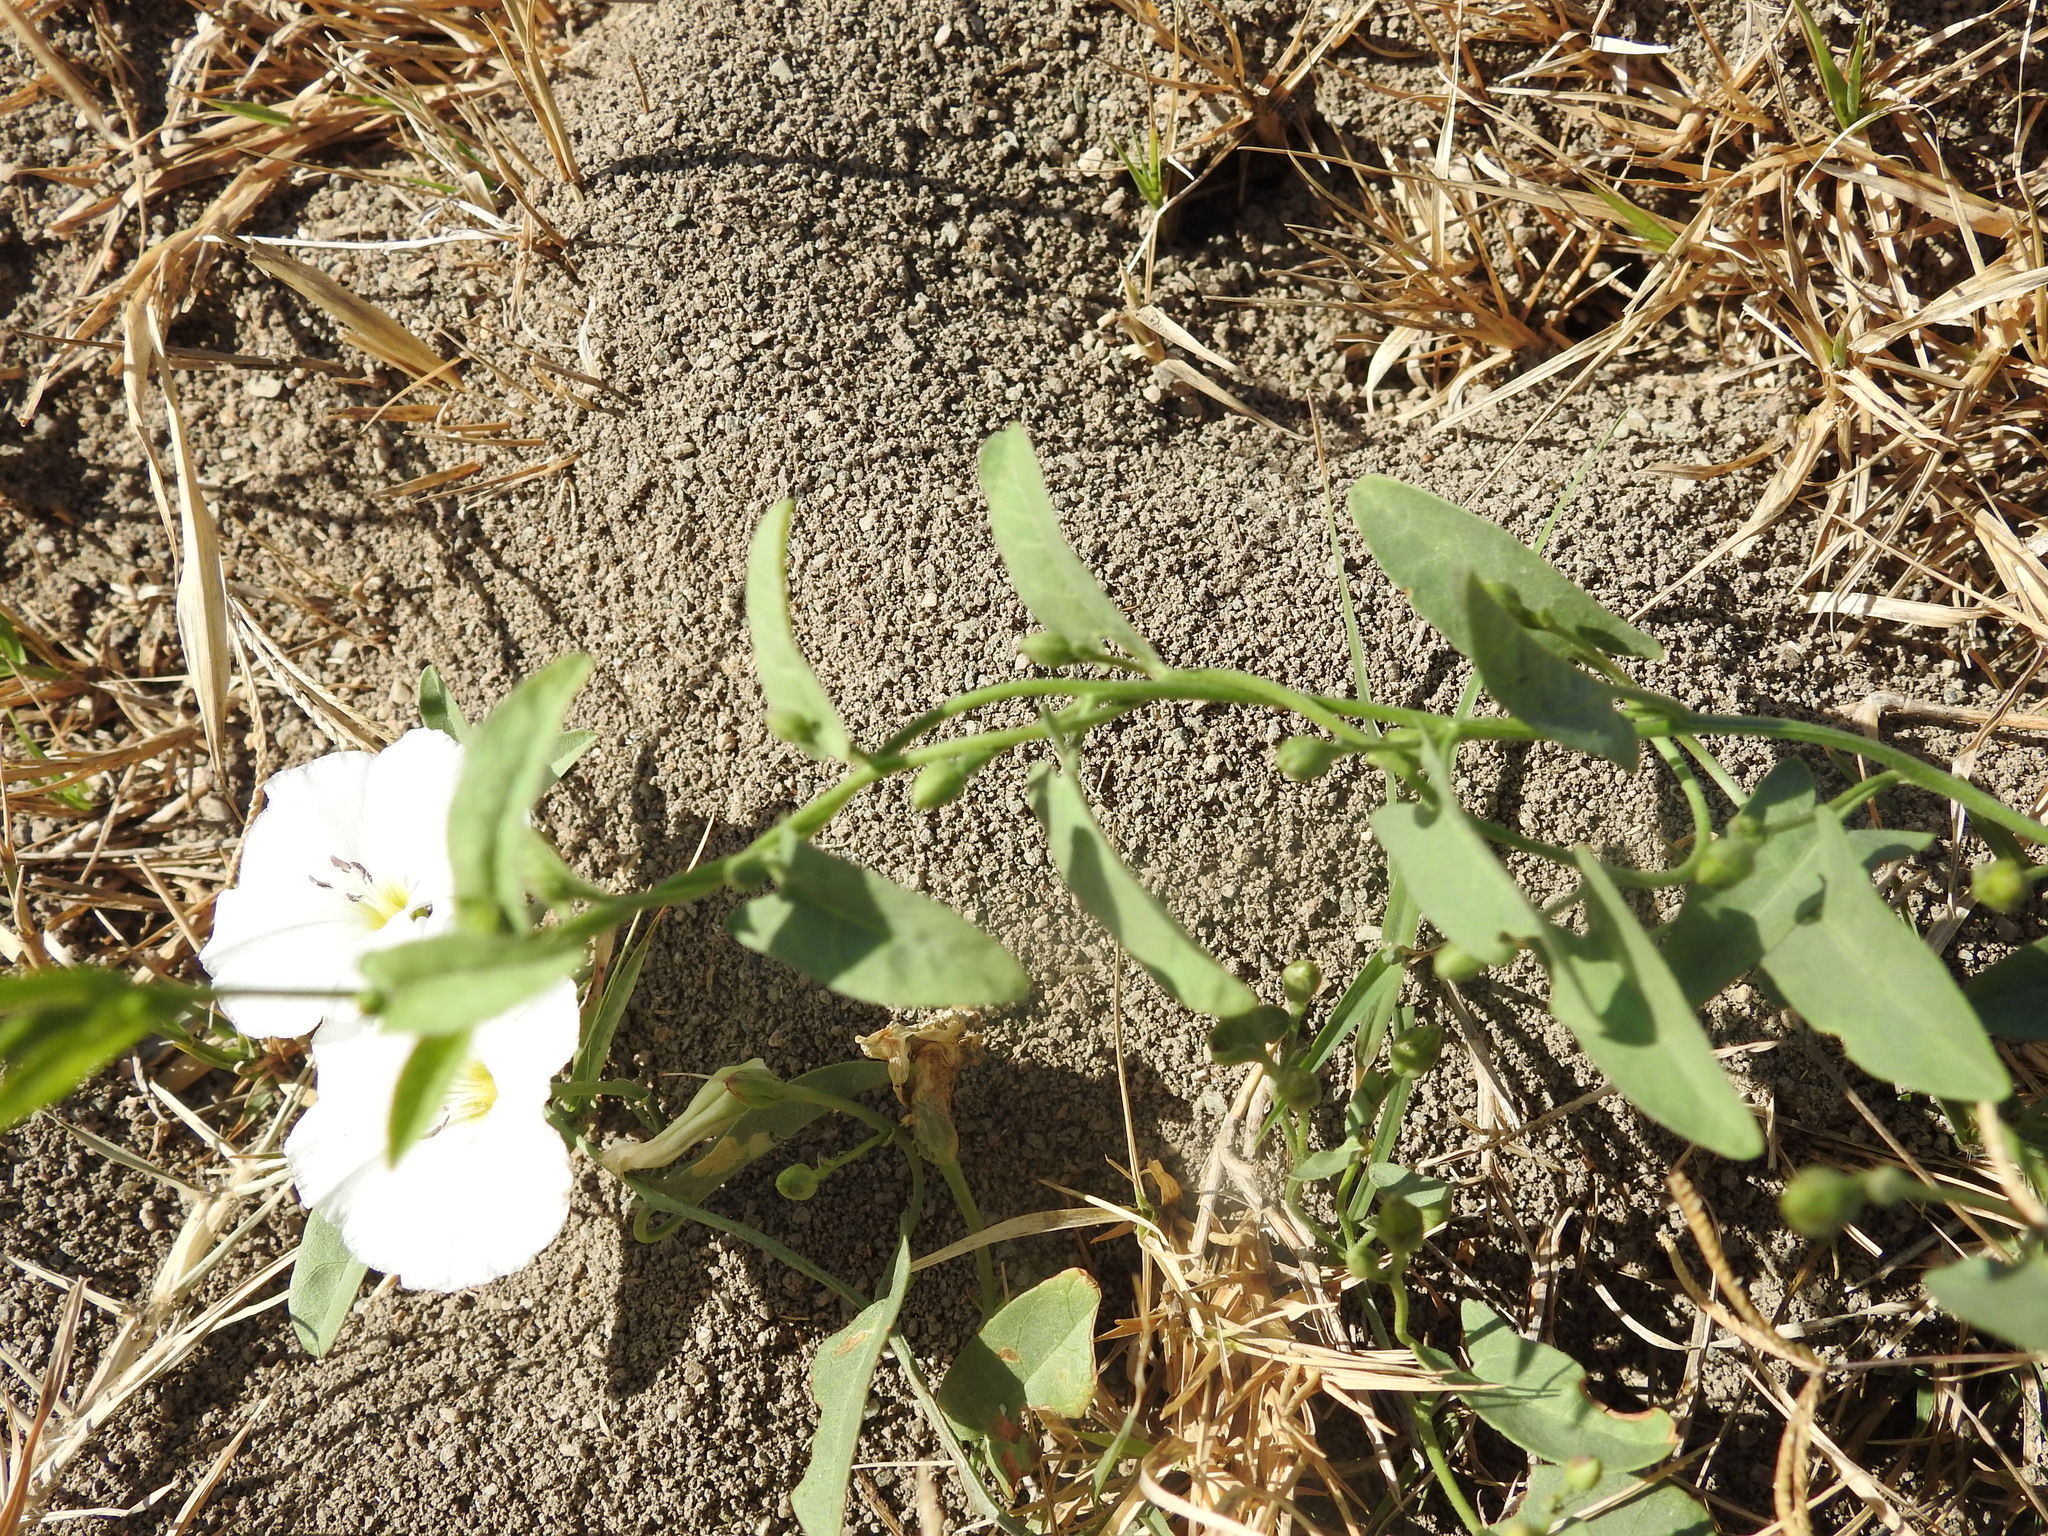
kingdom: Plantae
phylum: Tracheophyta
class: Magnoliopsida
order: Solanales
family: Convolvulaceae
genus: Convolvulus
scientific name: Convolvulus arvensis
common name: Field bindweed
